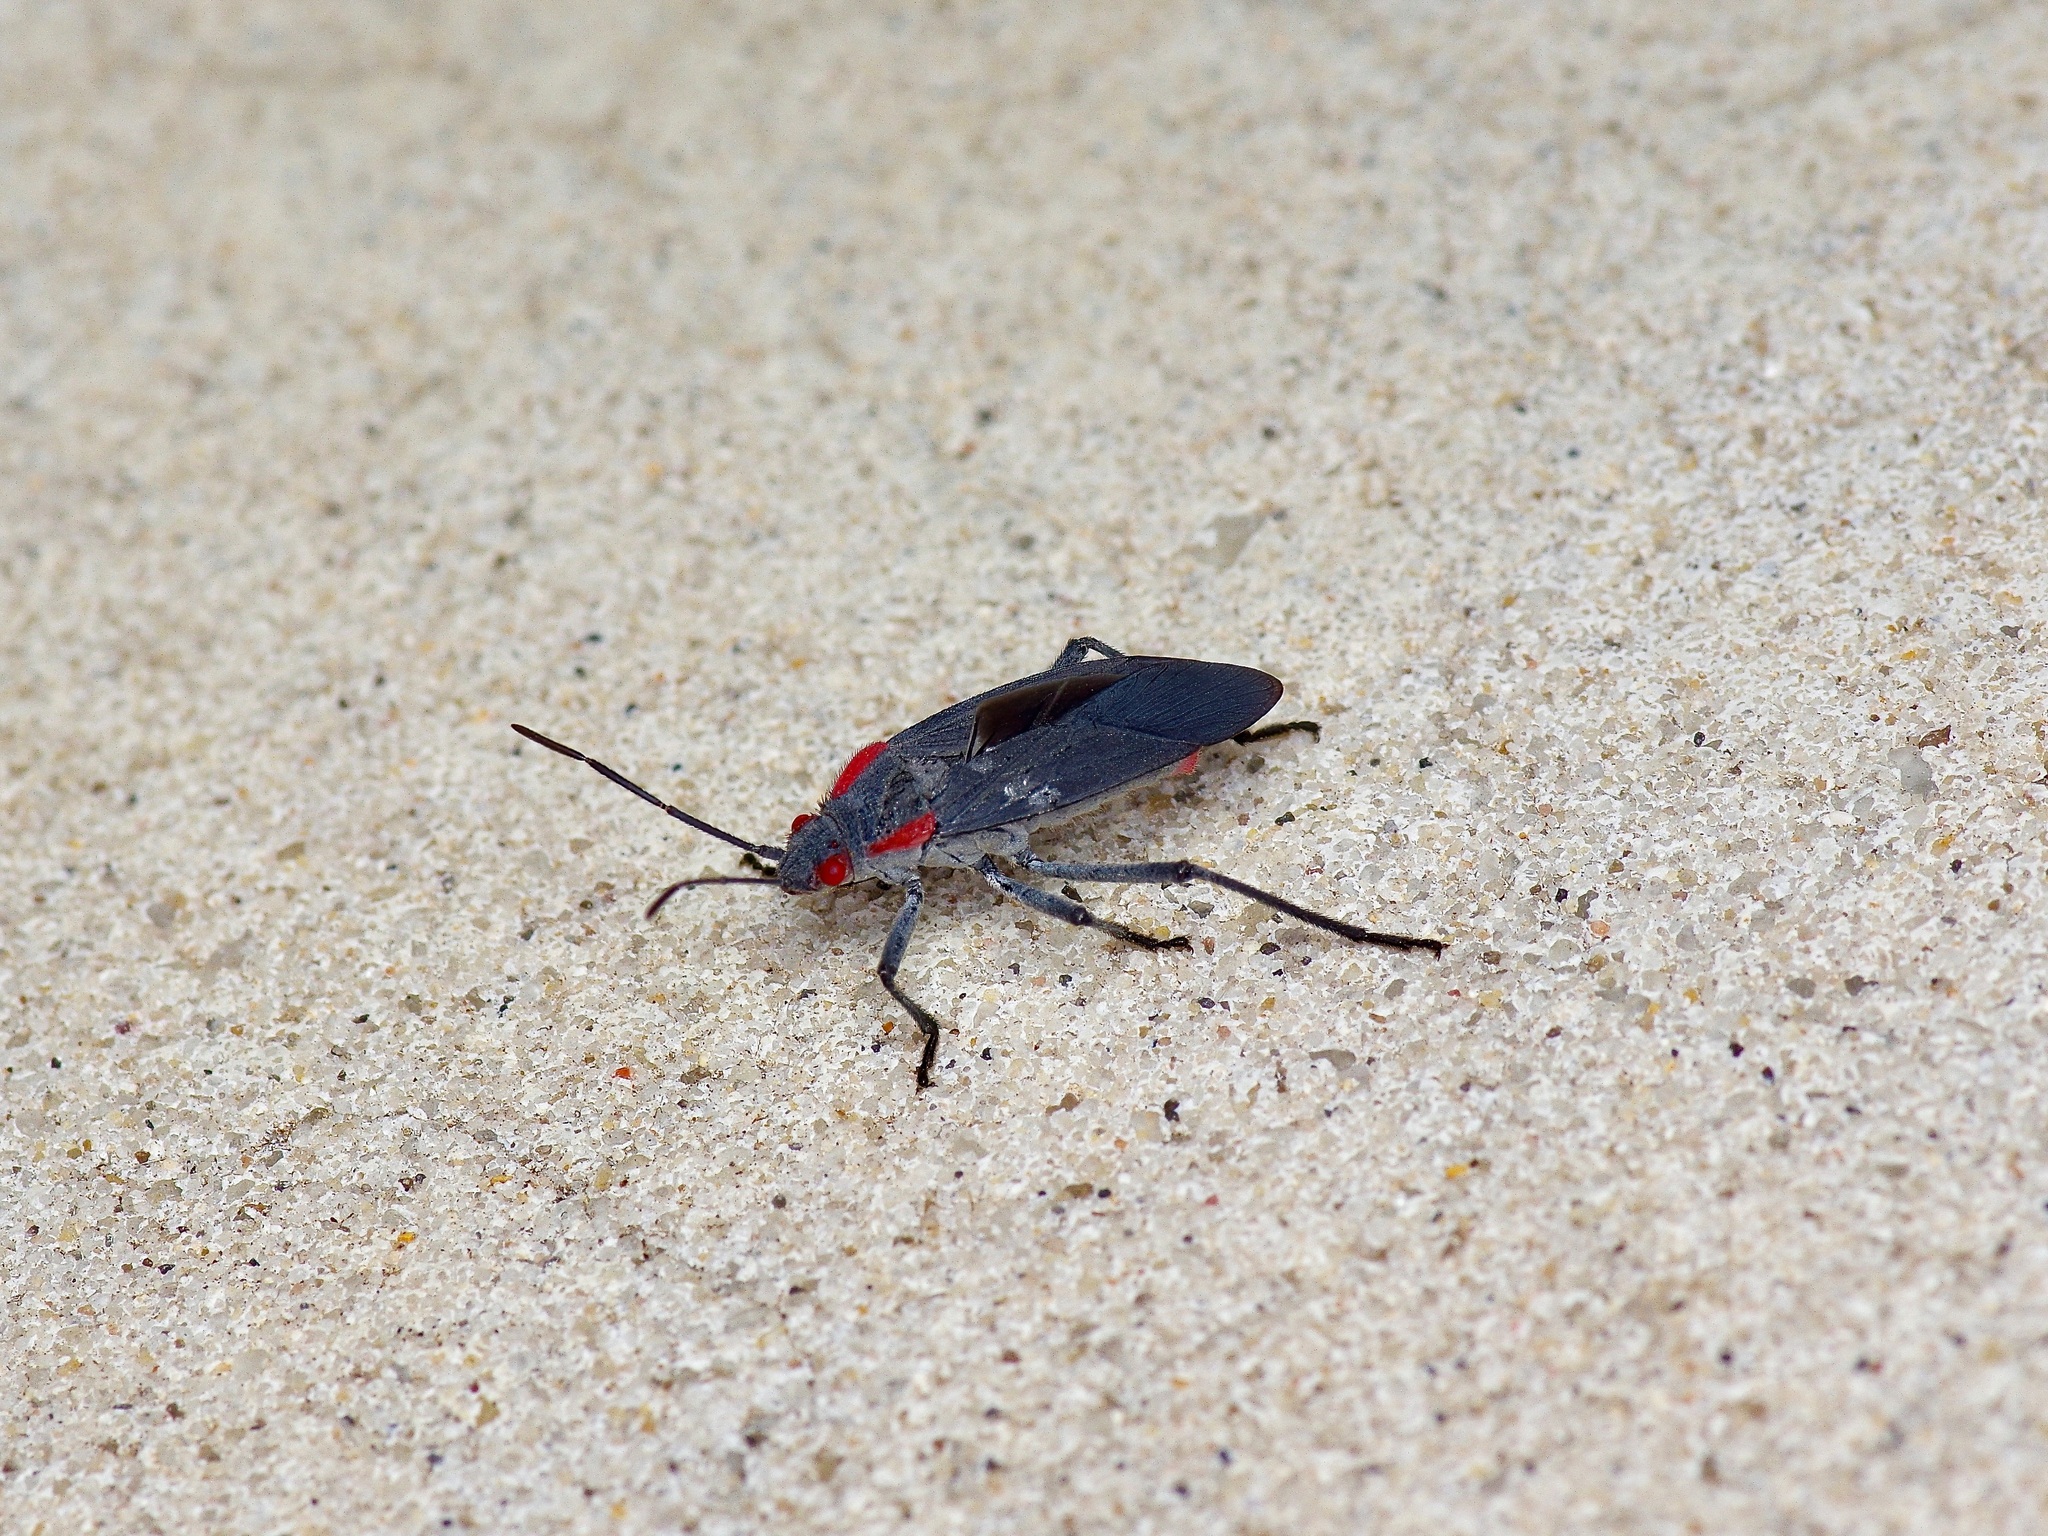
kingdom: Animalia
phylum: Arthropoda
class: Insecta
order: Hemiptera
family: Rhopalidae
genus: Jadera
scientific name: Jadera haematoloma
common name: Red-shouldered bug
